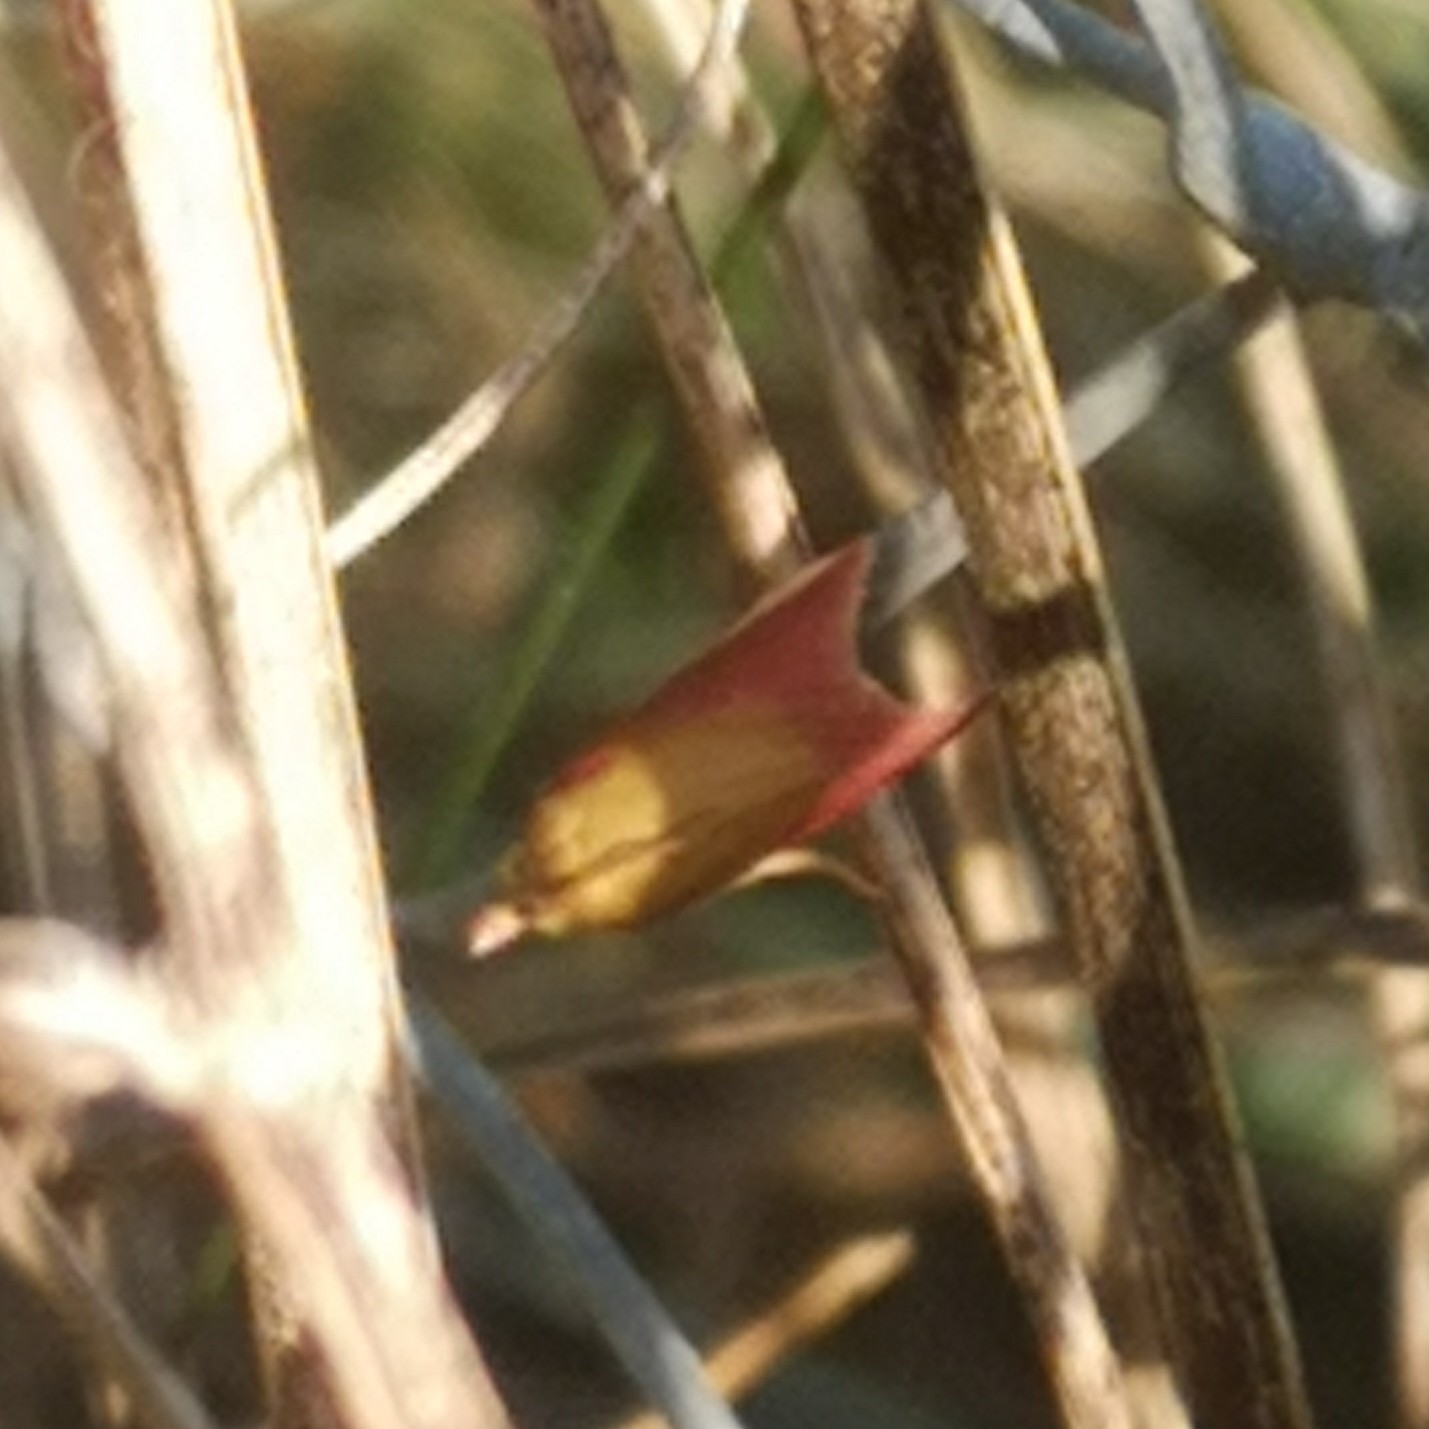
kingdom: Animalia
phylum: Arthropoda
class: Insecta
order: Lepidoptera
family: Pyralidae
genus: Oncocera
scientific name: Oncocera semirubella
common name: Rosy-striped knot-horn
